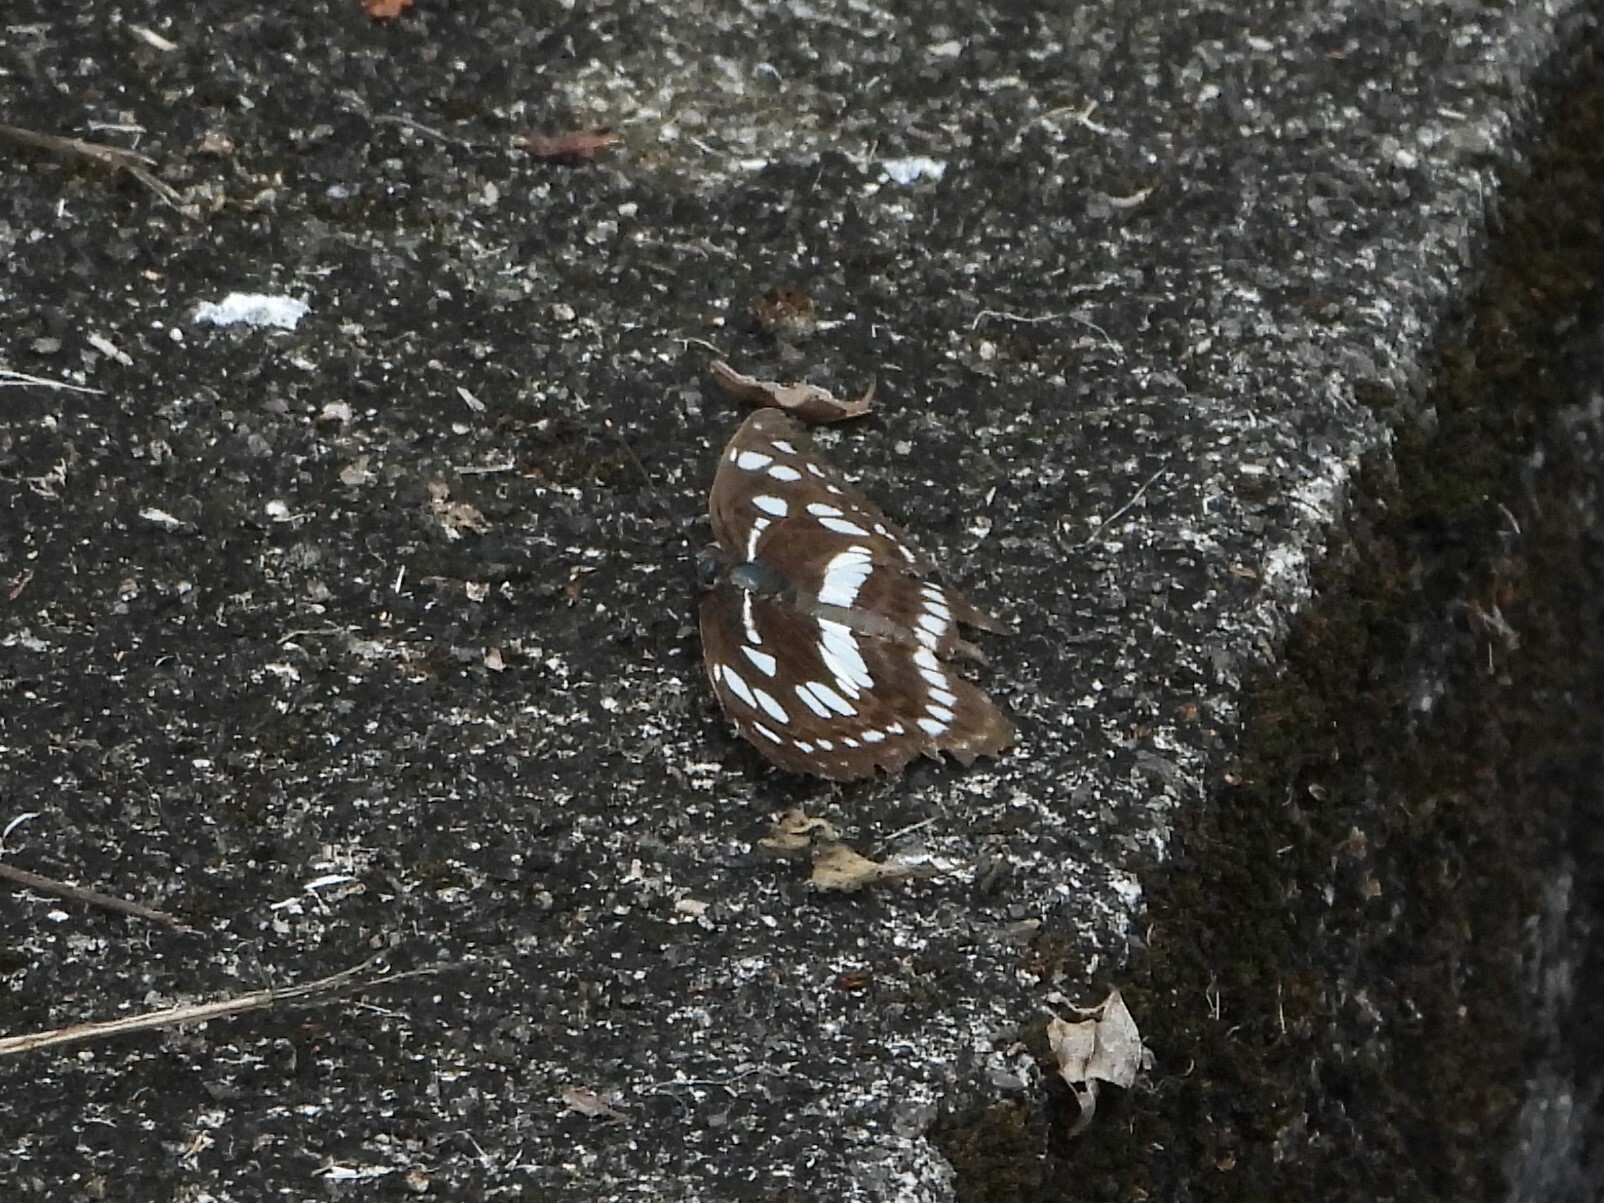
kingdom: Animalia
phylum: Arthropoda
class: Insecta
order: Lepidoptera
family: Nymphalidae
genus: Phaedyma
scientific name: Phaedyma columella
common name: Short banded sailer
